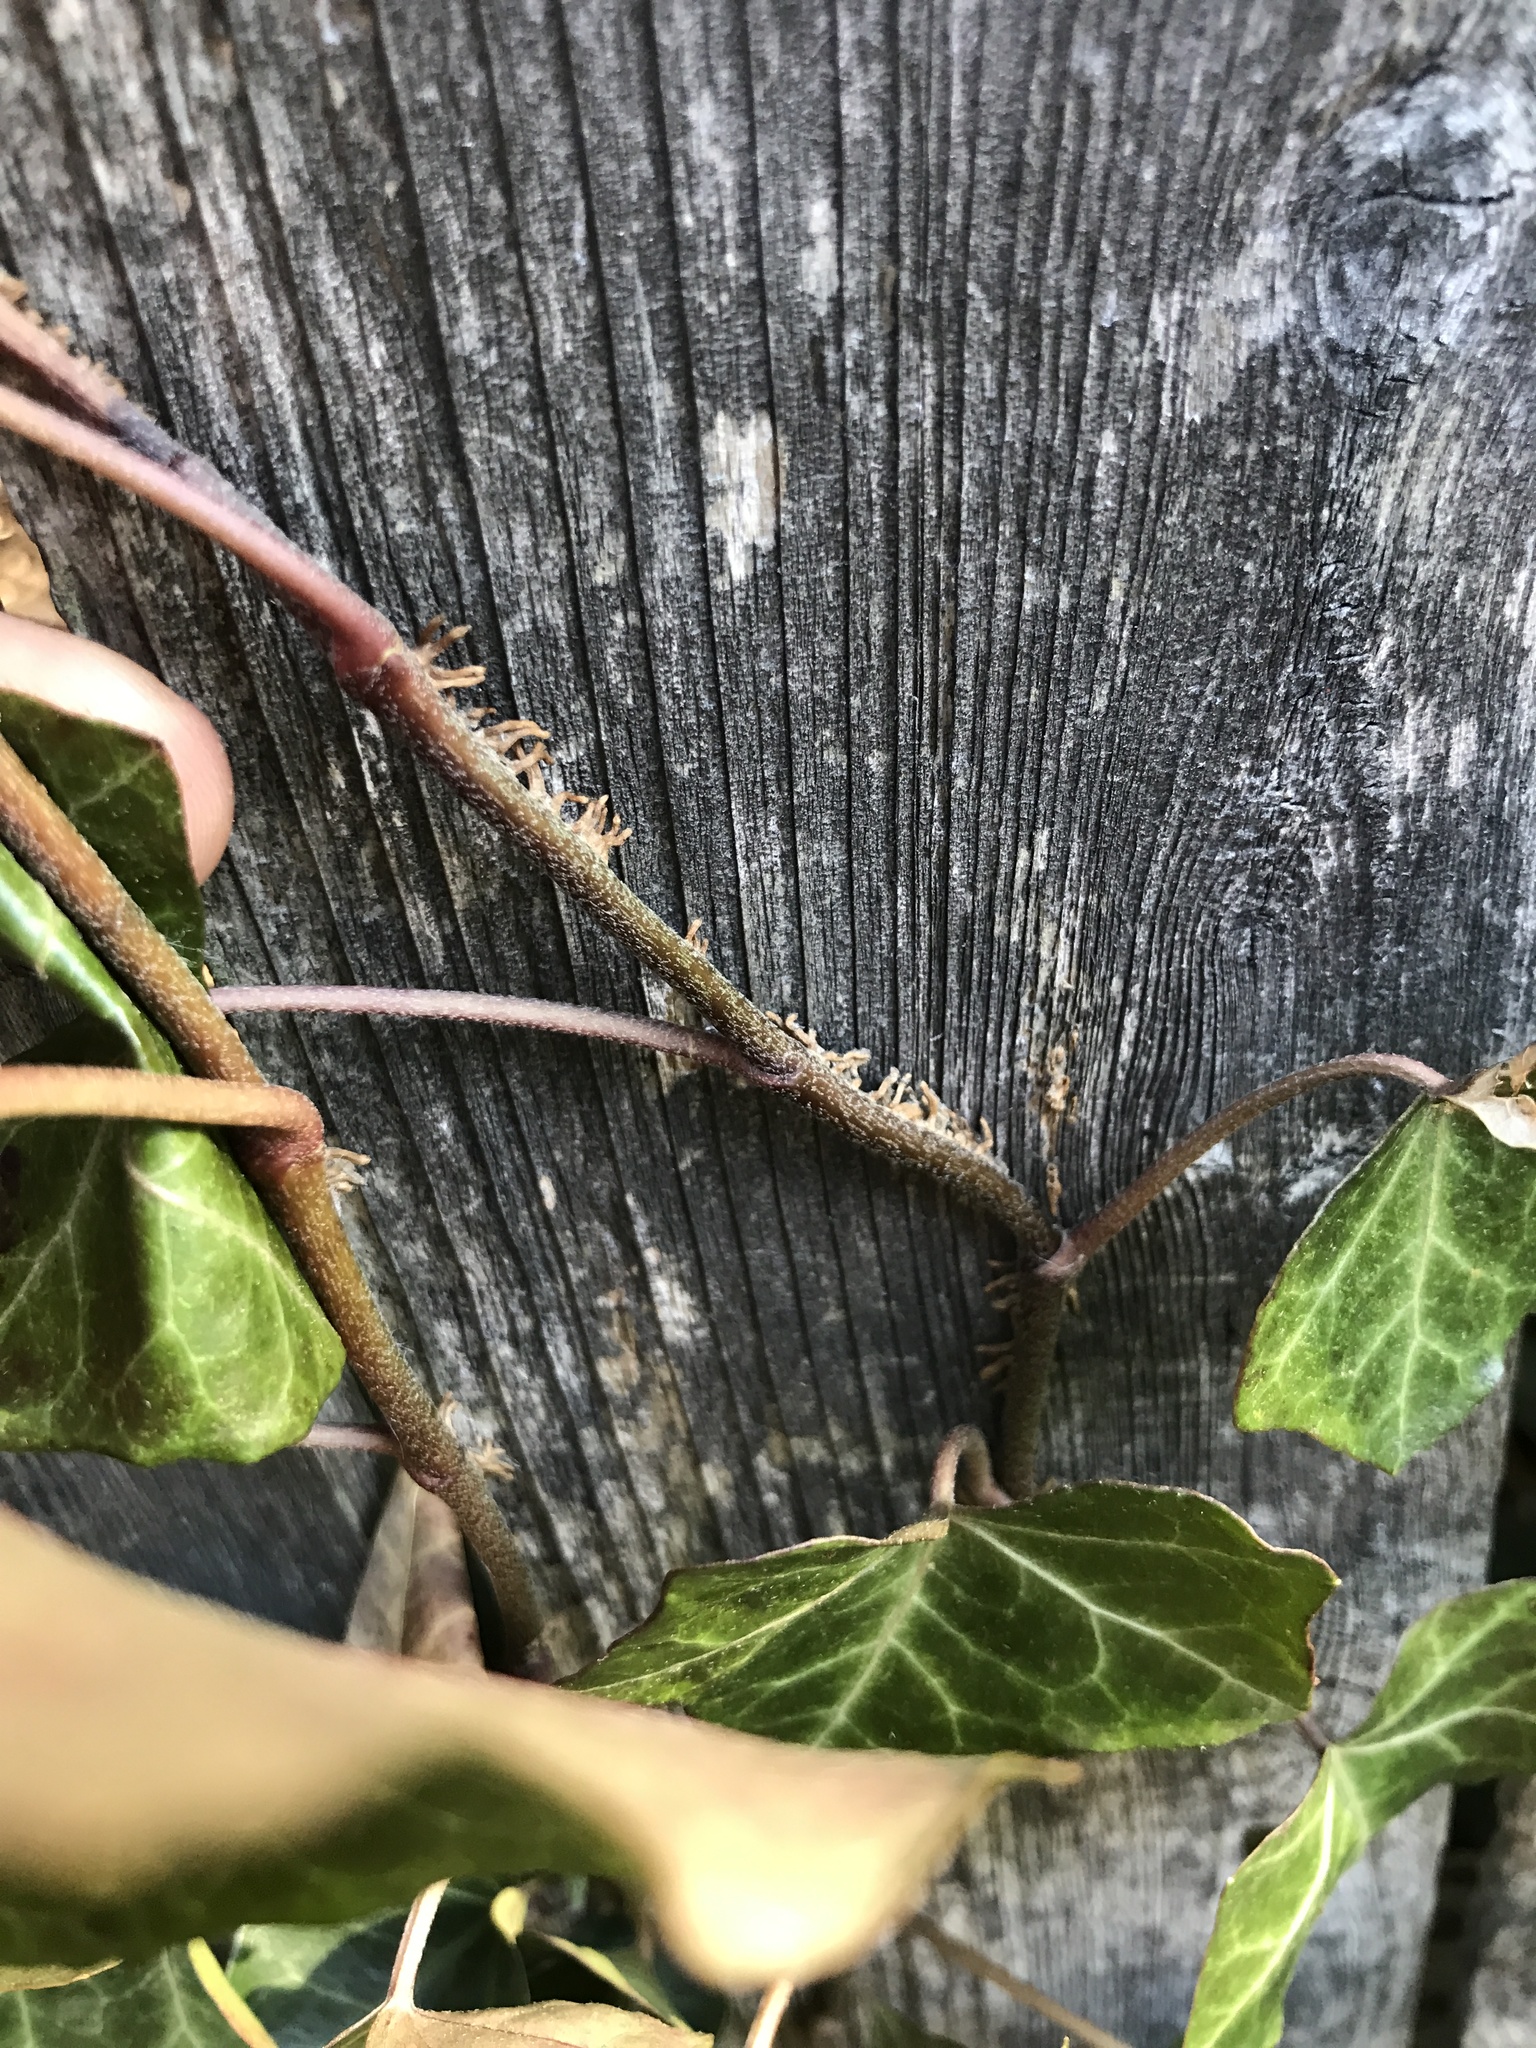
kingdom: Plantae
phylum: Tracheophyta
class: Magnoliopsida
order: Apiales
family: Araliaceae
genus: Hedera
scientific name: Hedera helix
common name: Ivy
